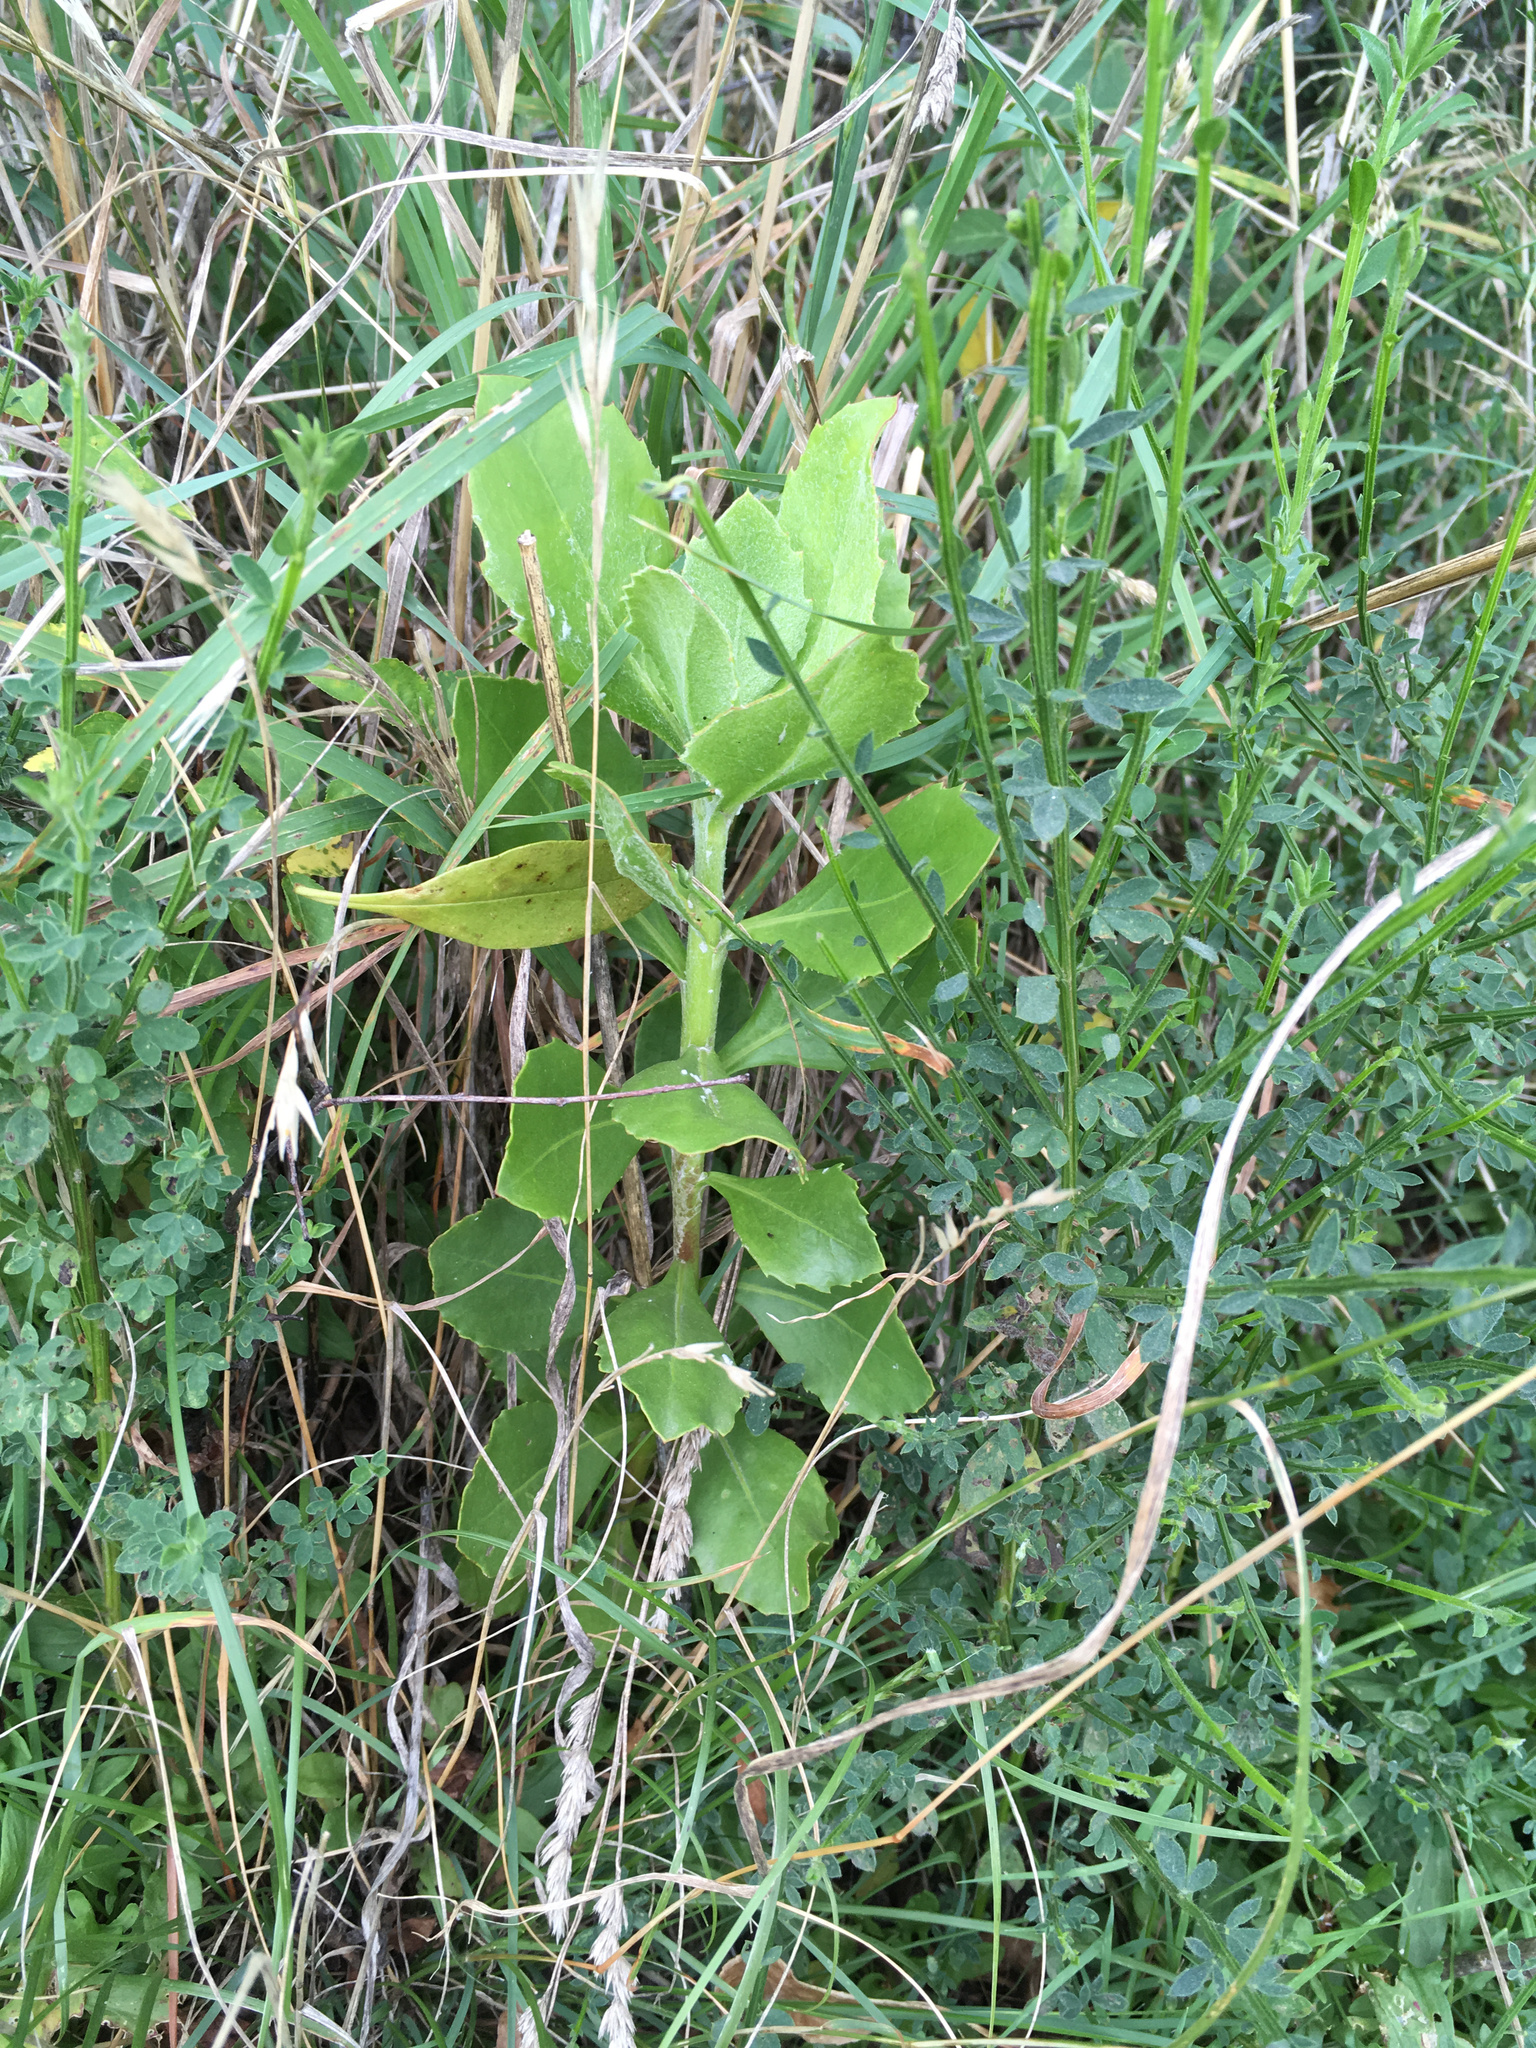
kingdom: Plantae
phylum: Tracheophyta
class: Magnoliopsida
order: Asterales
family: Asteraceae
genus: Osteospermum
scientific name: Osteospermum moniliferum
